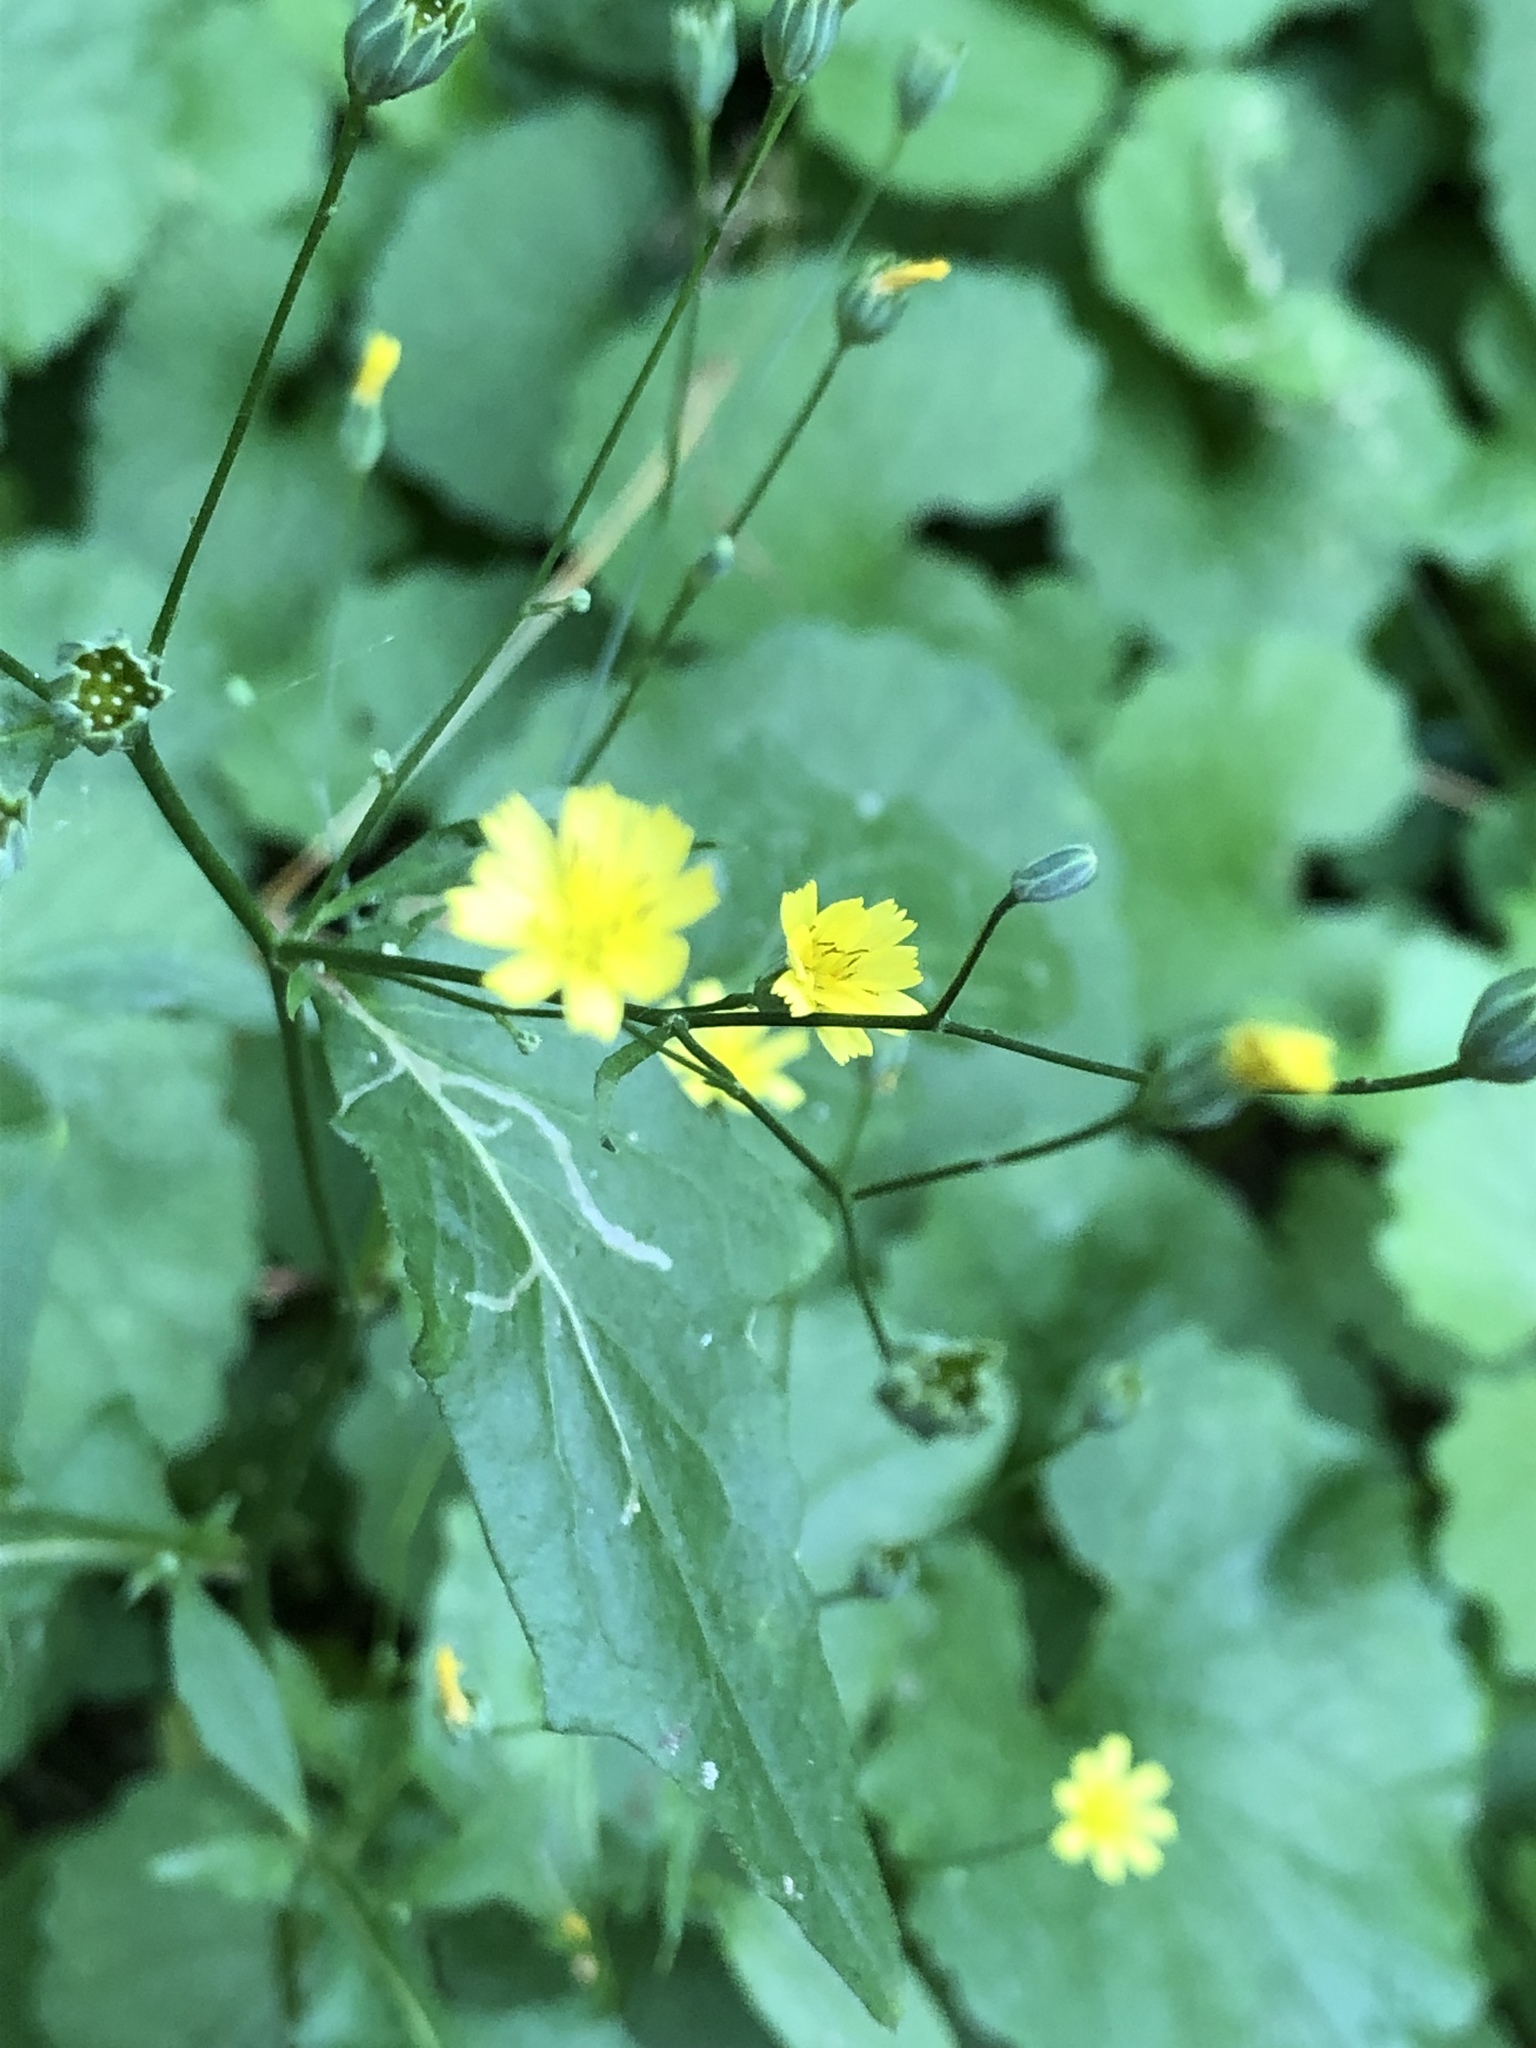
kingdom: Plantae
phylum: Tracheophyta
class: Magnoliopsida
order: Asterales
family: Asteraceae
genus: Lapsana
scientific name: Lapsana communis
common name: Nipplewort
